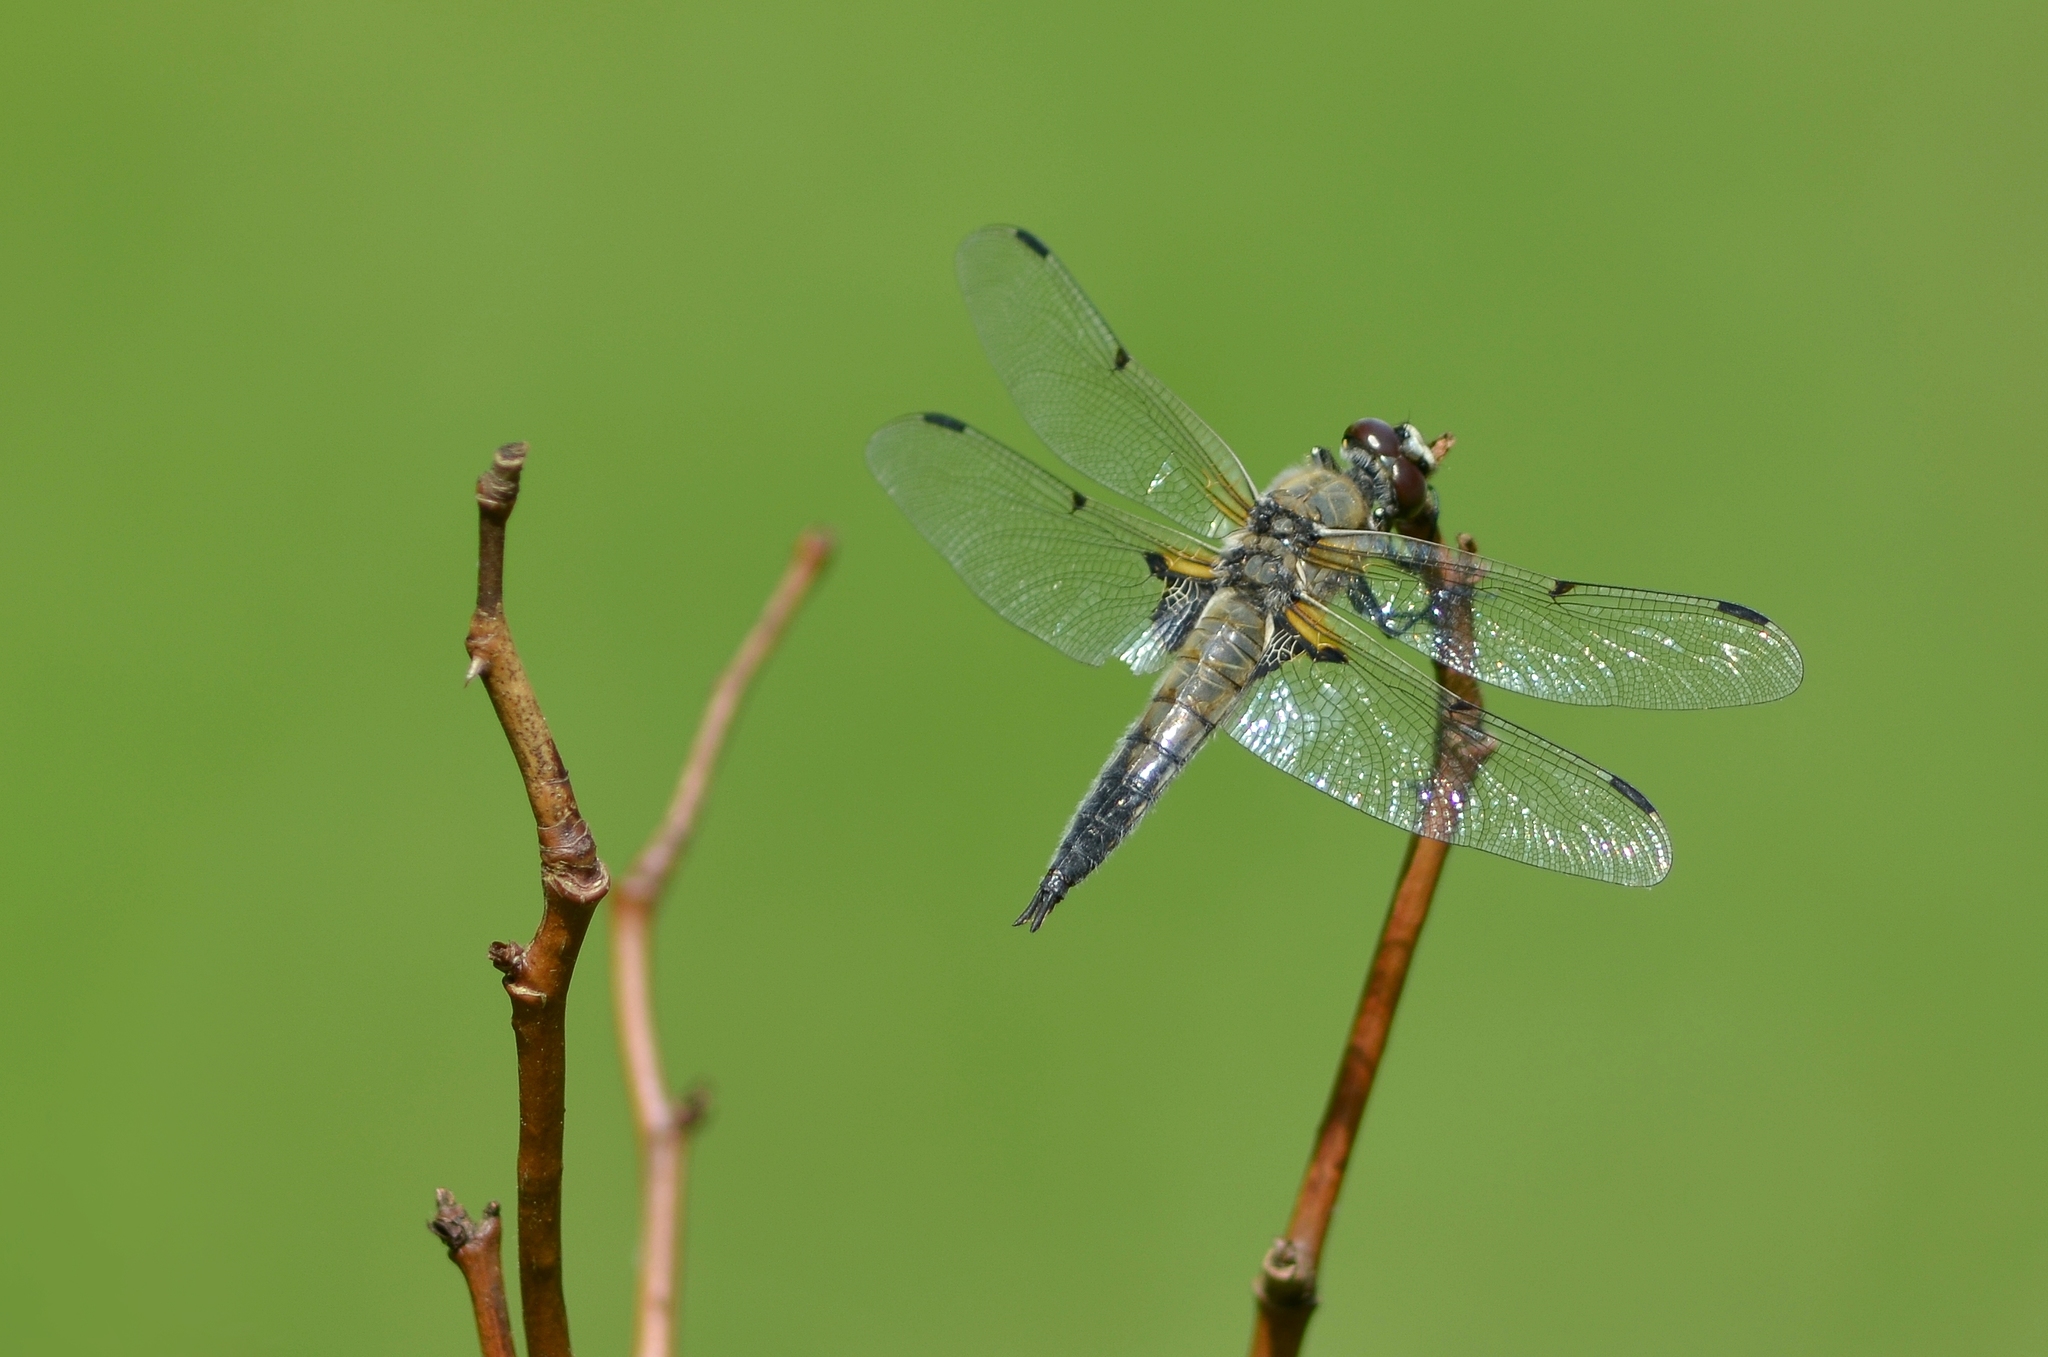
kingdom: Animalia
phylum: Arthropoda
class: Insecta
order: Odonata
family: Libellulidae
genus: Libellula
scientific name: Libellula quadrimaculata
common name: Four-spotted chaser
